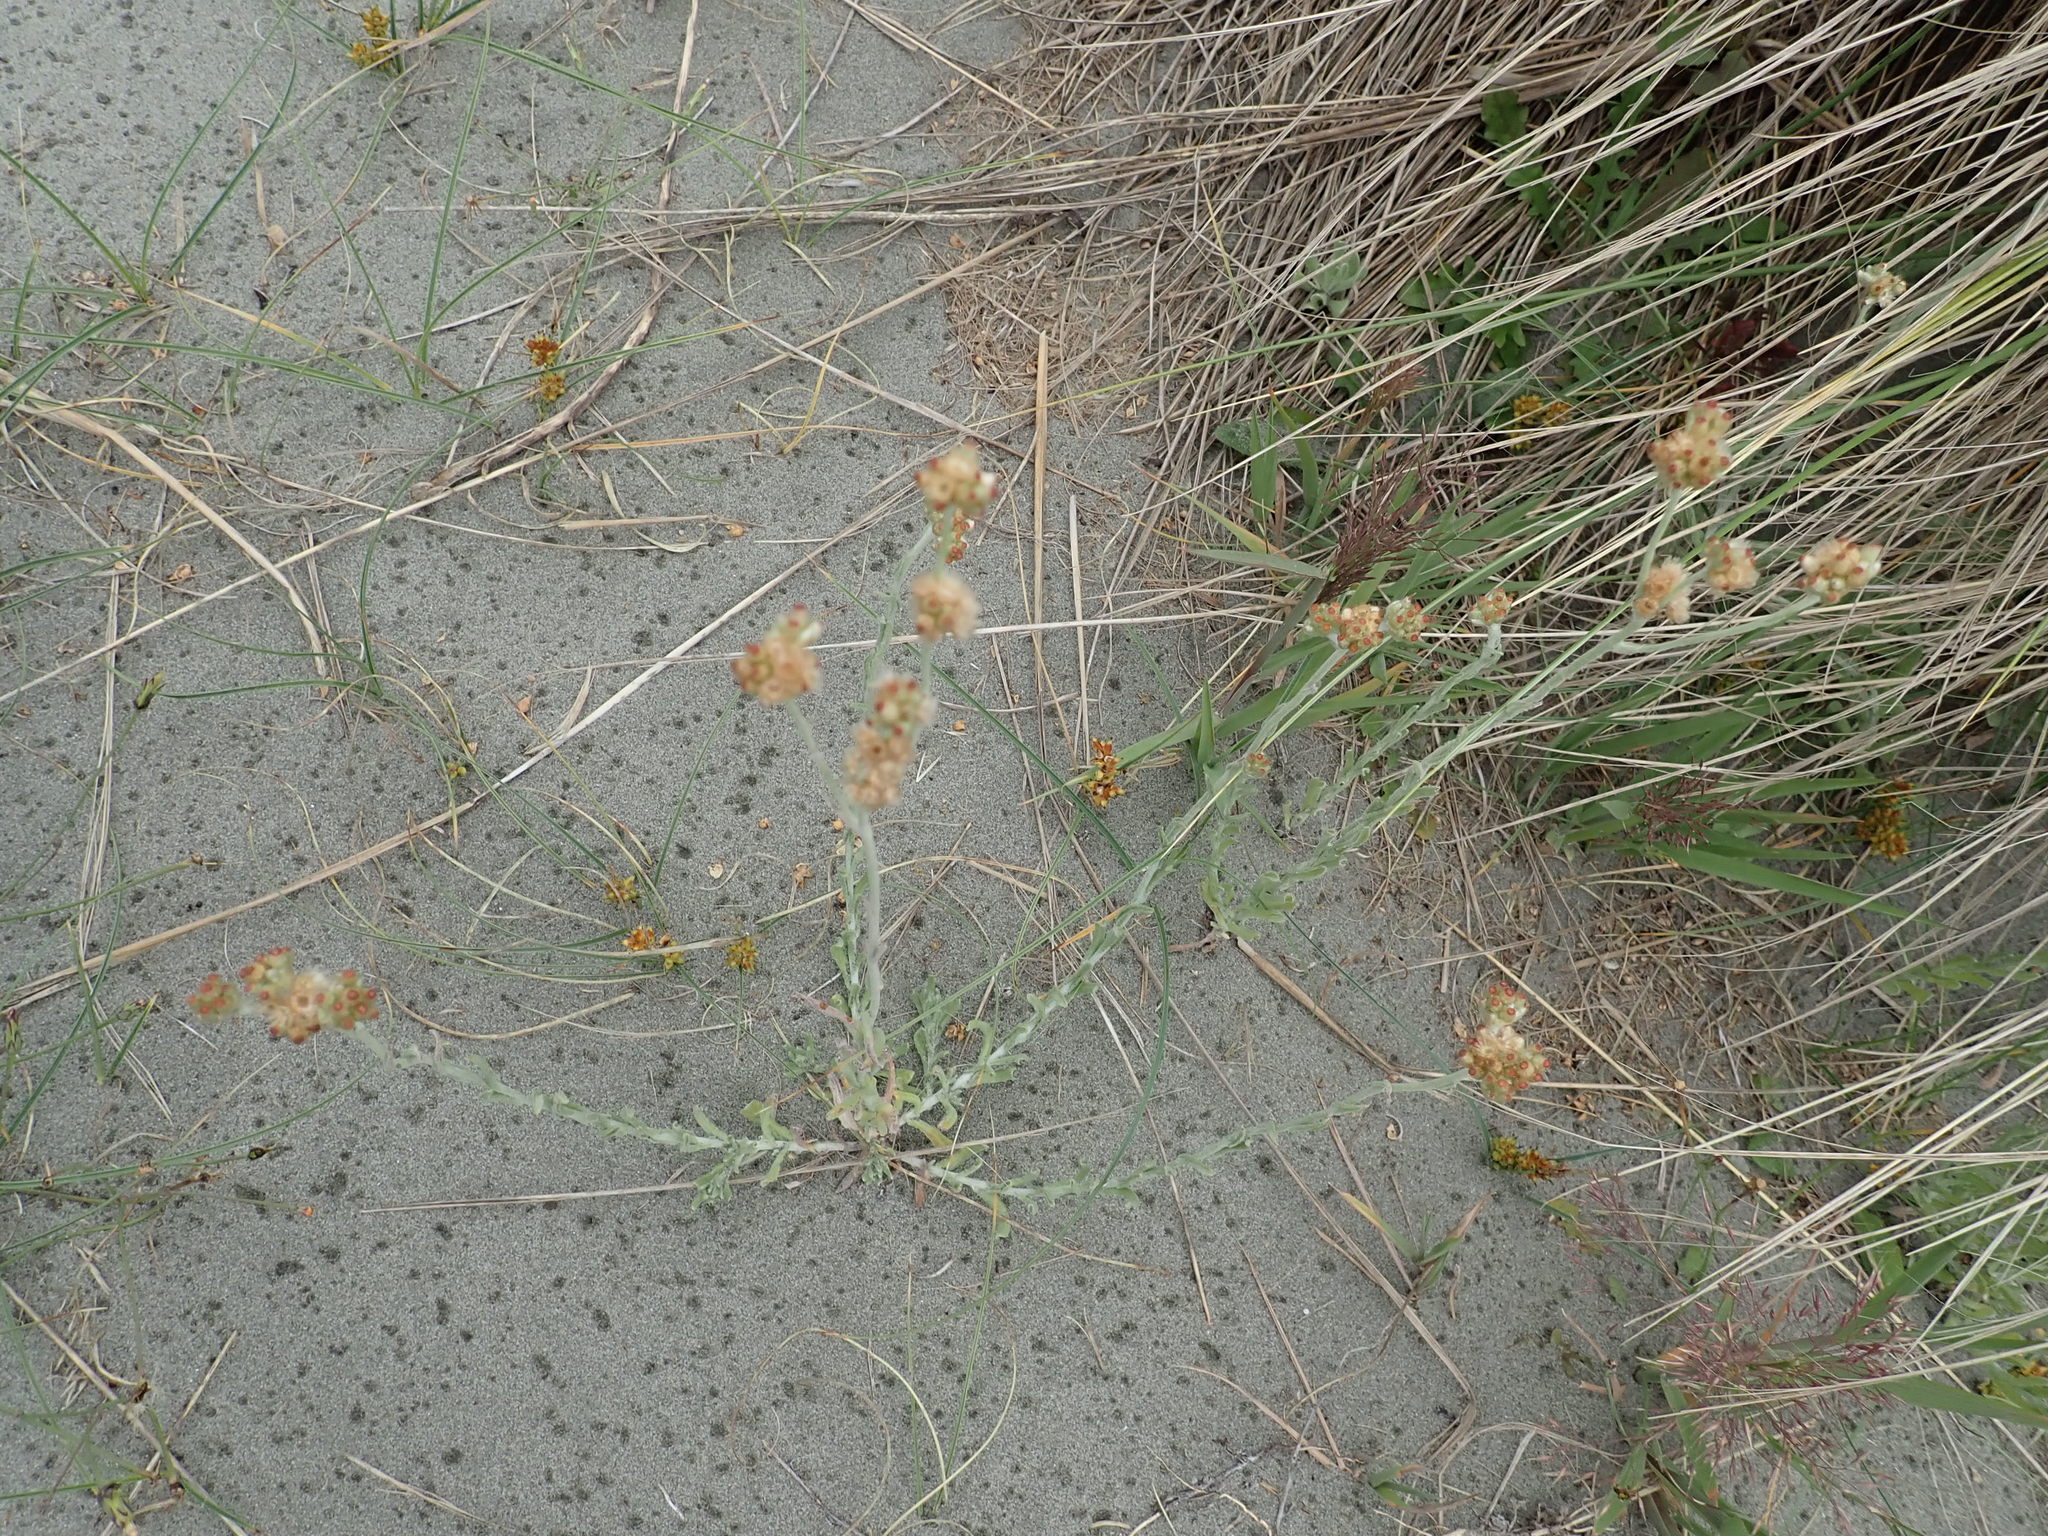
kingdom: Plantae
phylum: Tracheophyta
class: Magnoliopsida
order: Asterales
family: Asteraceae
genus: Helichrysum
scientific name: Helichrysum luteoalbum
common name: Daisy
